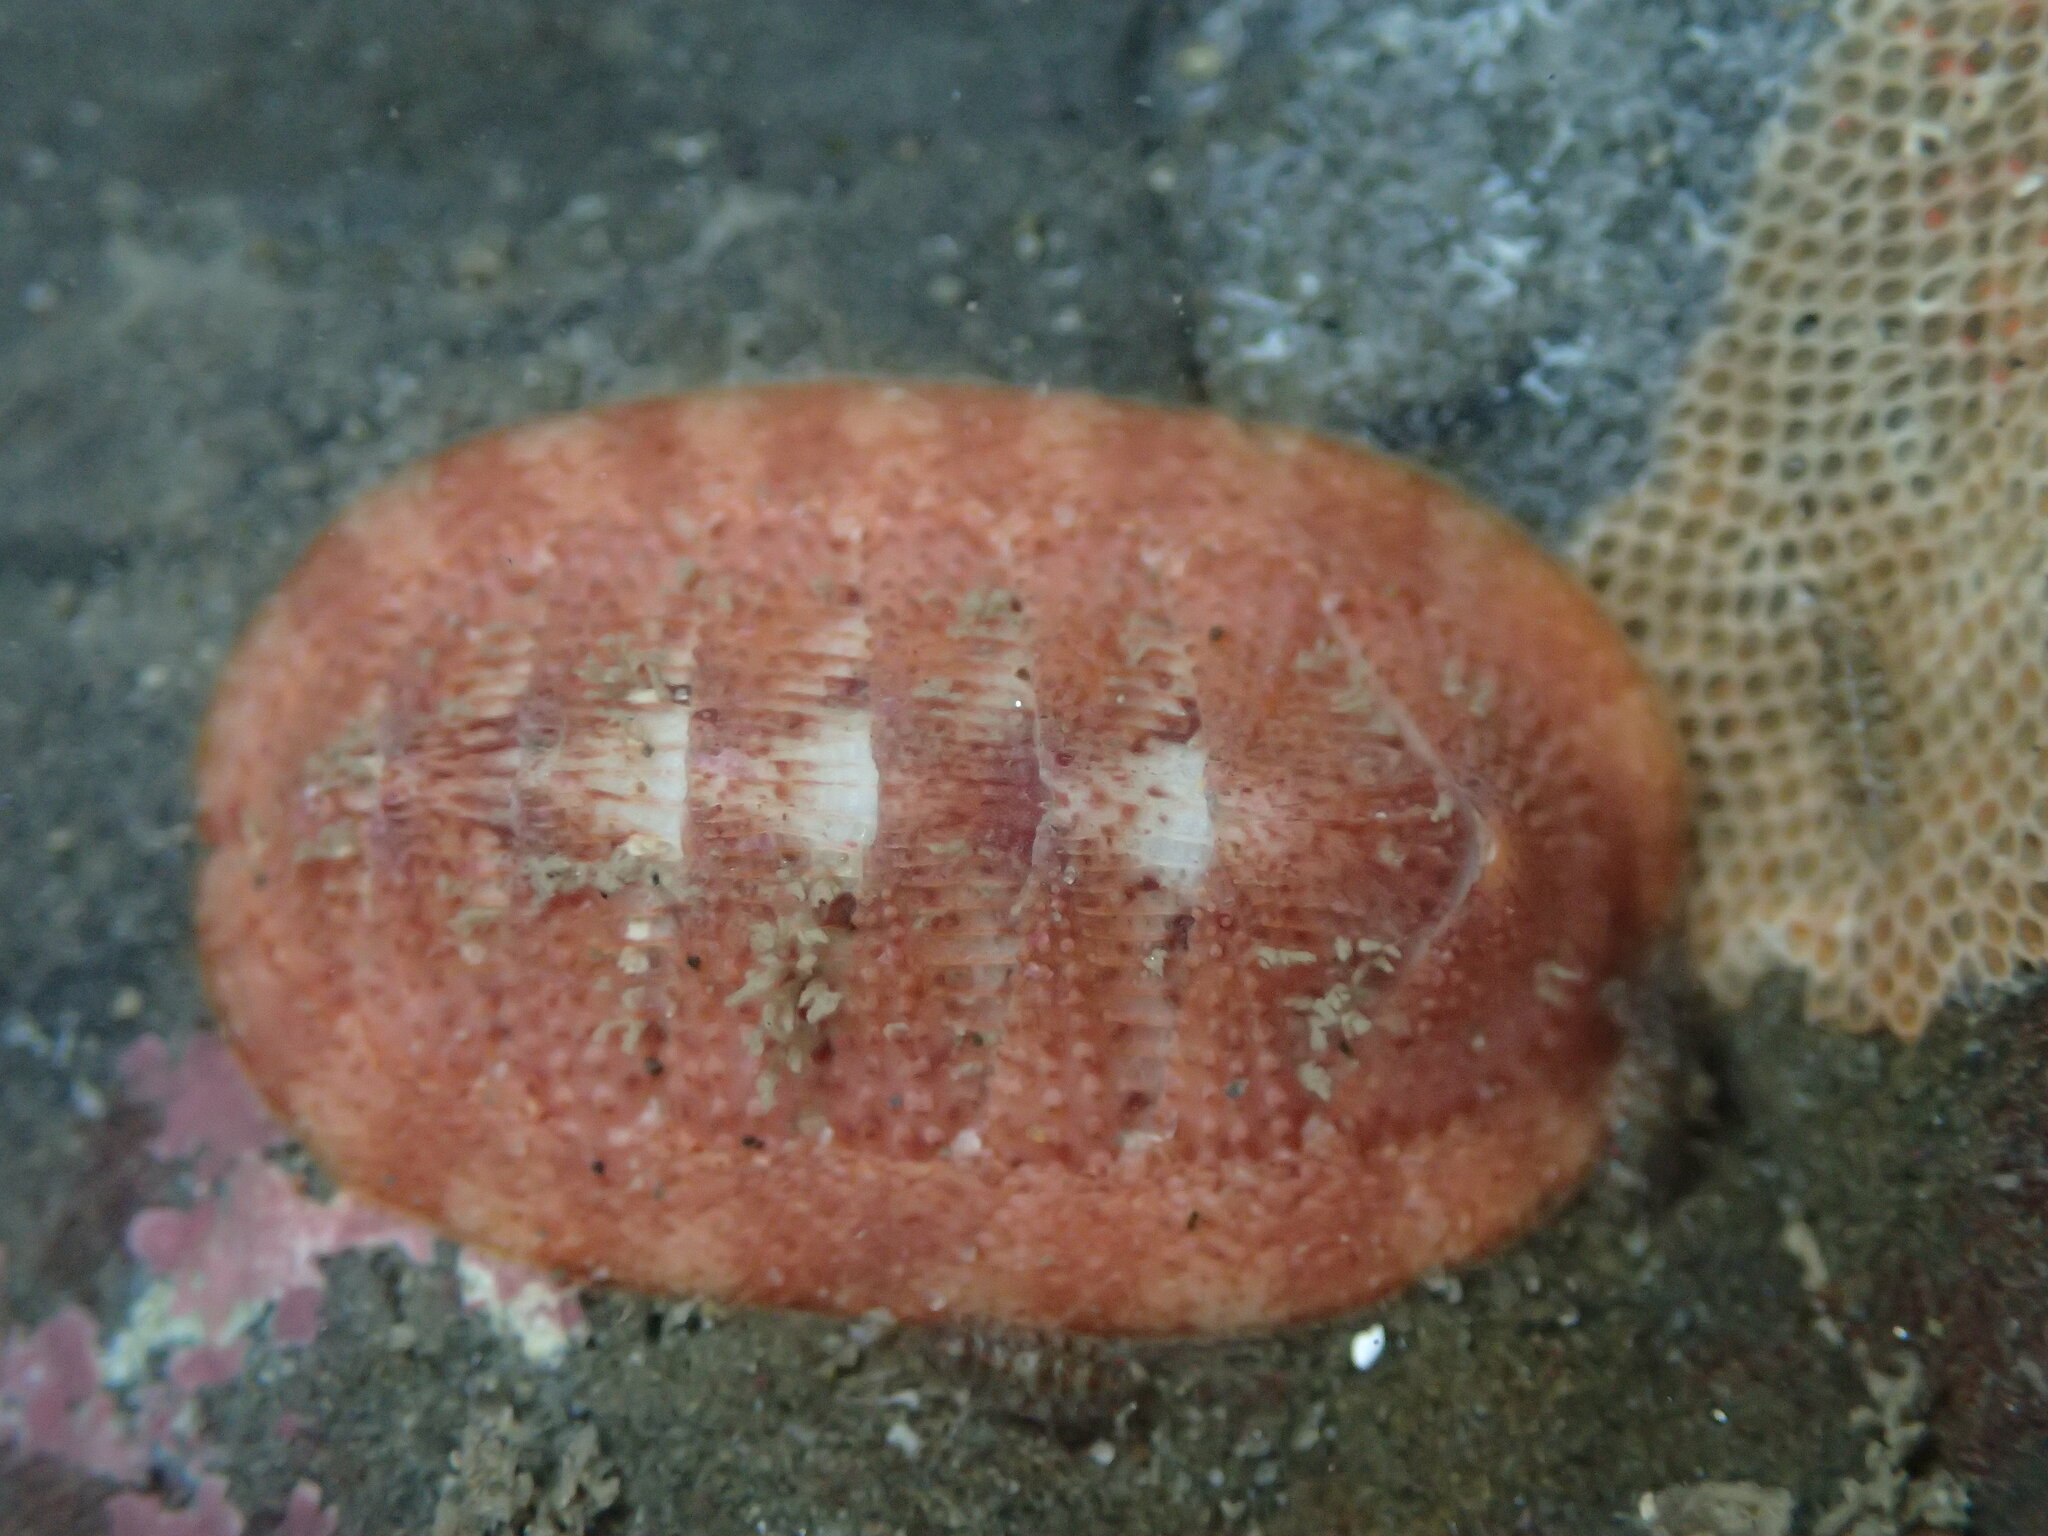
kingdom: Animalia
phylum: Mollusca
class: Polyplacophora
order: Chitonida
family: Ischnochitonidae
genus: Lepidozona
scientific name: Lepidozona mertensii
